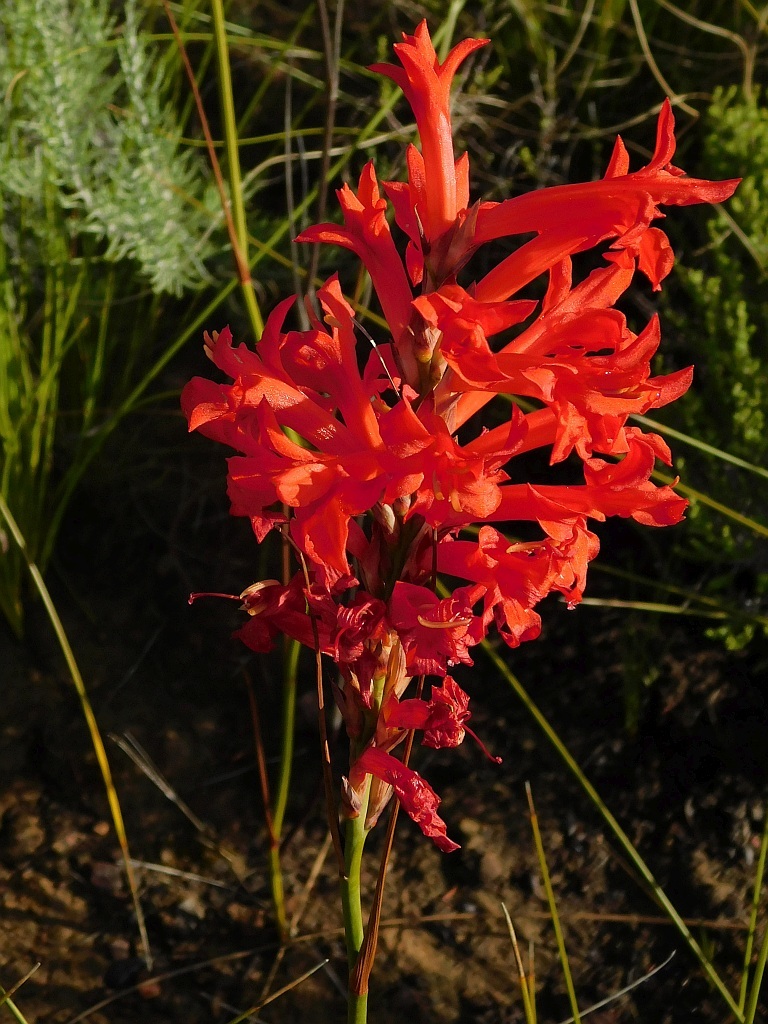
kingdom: Plantae
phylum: Tracheophyta
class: Liliopsida
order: Asparagales
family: Iridaceae
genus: Tritoniopsis
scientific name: Tritoniopsis triticea
